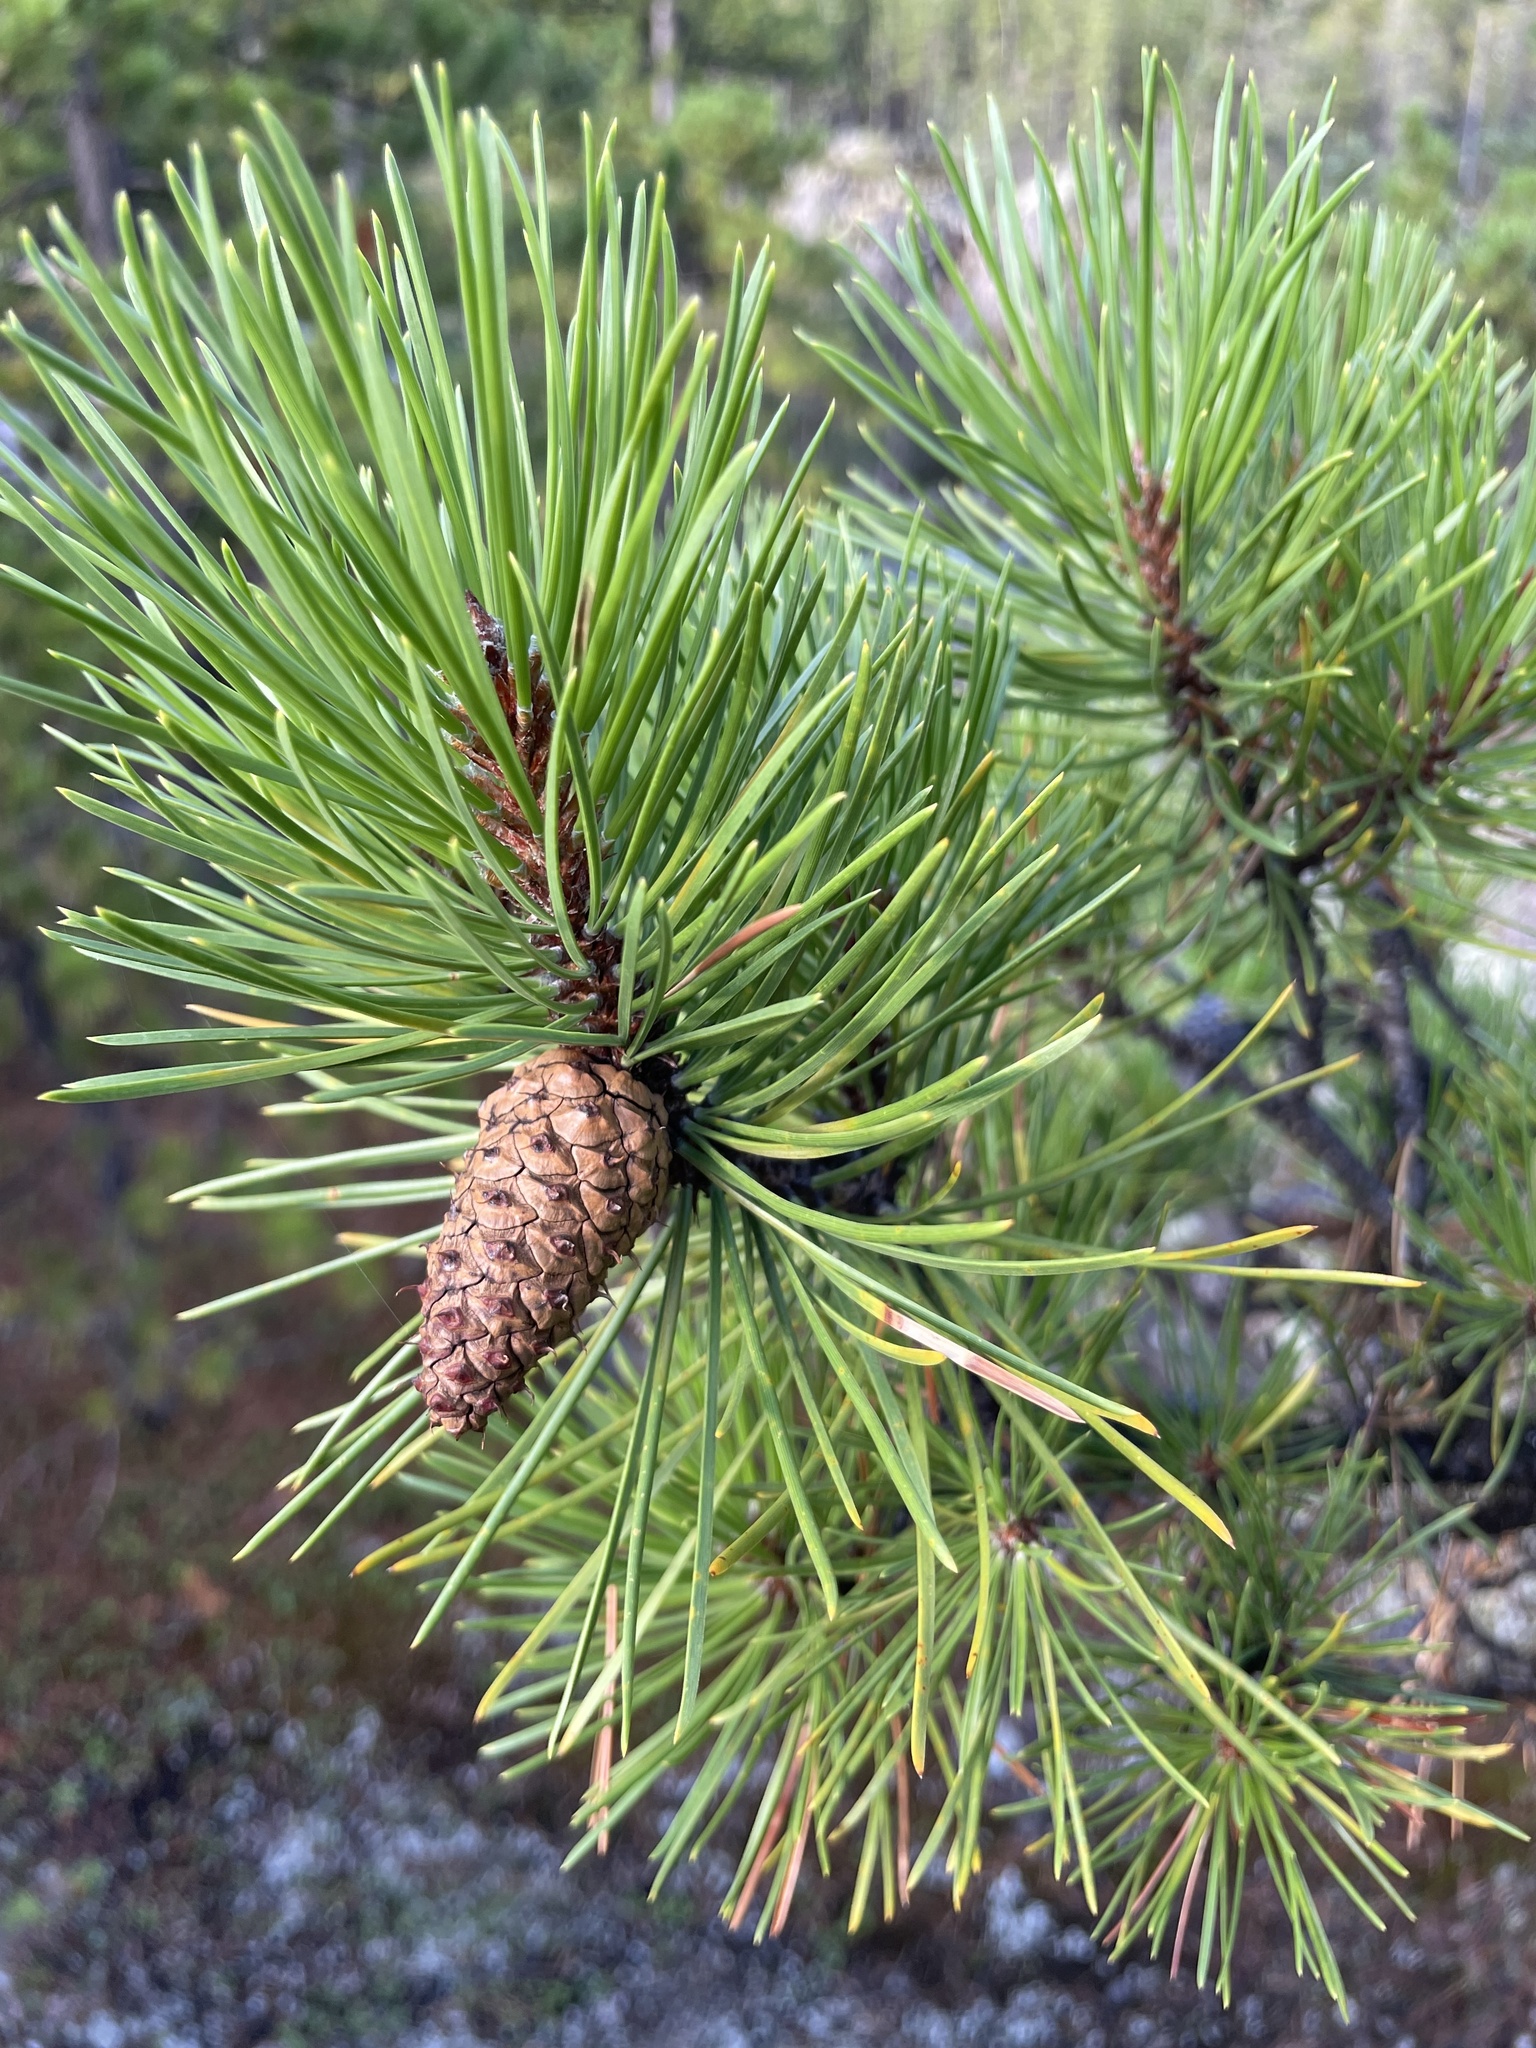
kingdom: Plantae
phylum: Tracheophyta
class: Pinopsida
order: Pinales
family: Pinaceae
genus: Pinus
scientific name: Pinus contorta
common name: Lodgepole pine
